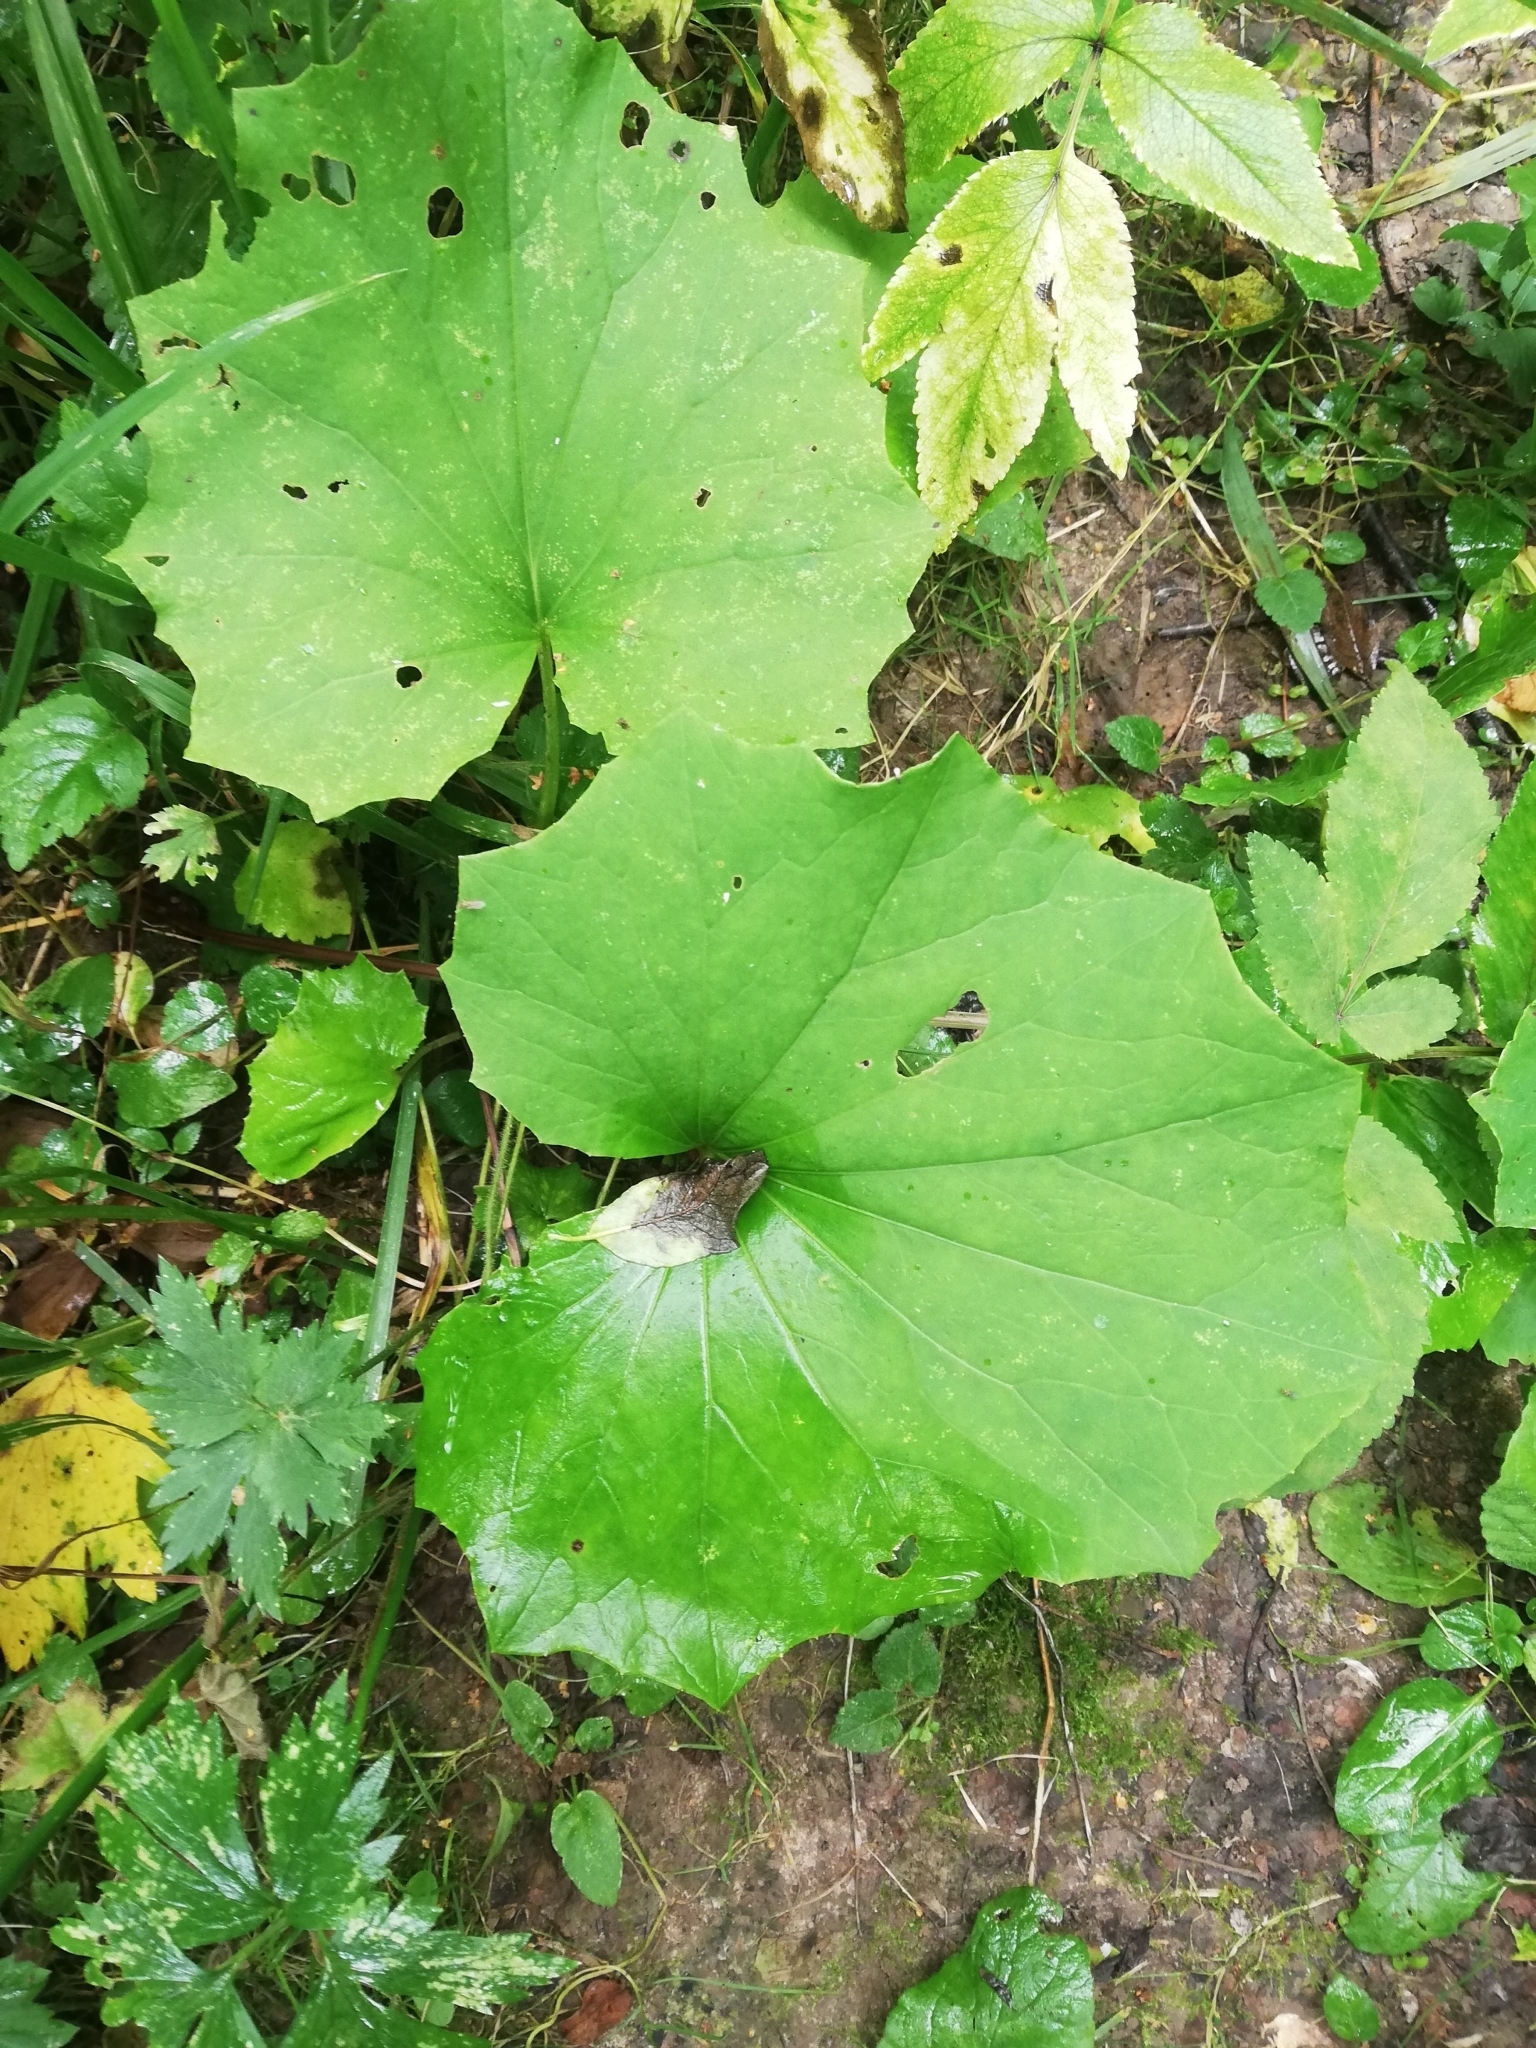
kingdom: Plantae
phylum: Tracheophyta
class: Magnoliopsida
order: Asterales
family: Asteraceae
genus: Tussilago
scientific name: Tussilago farfara
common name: Coltsfoot
